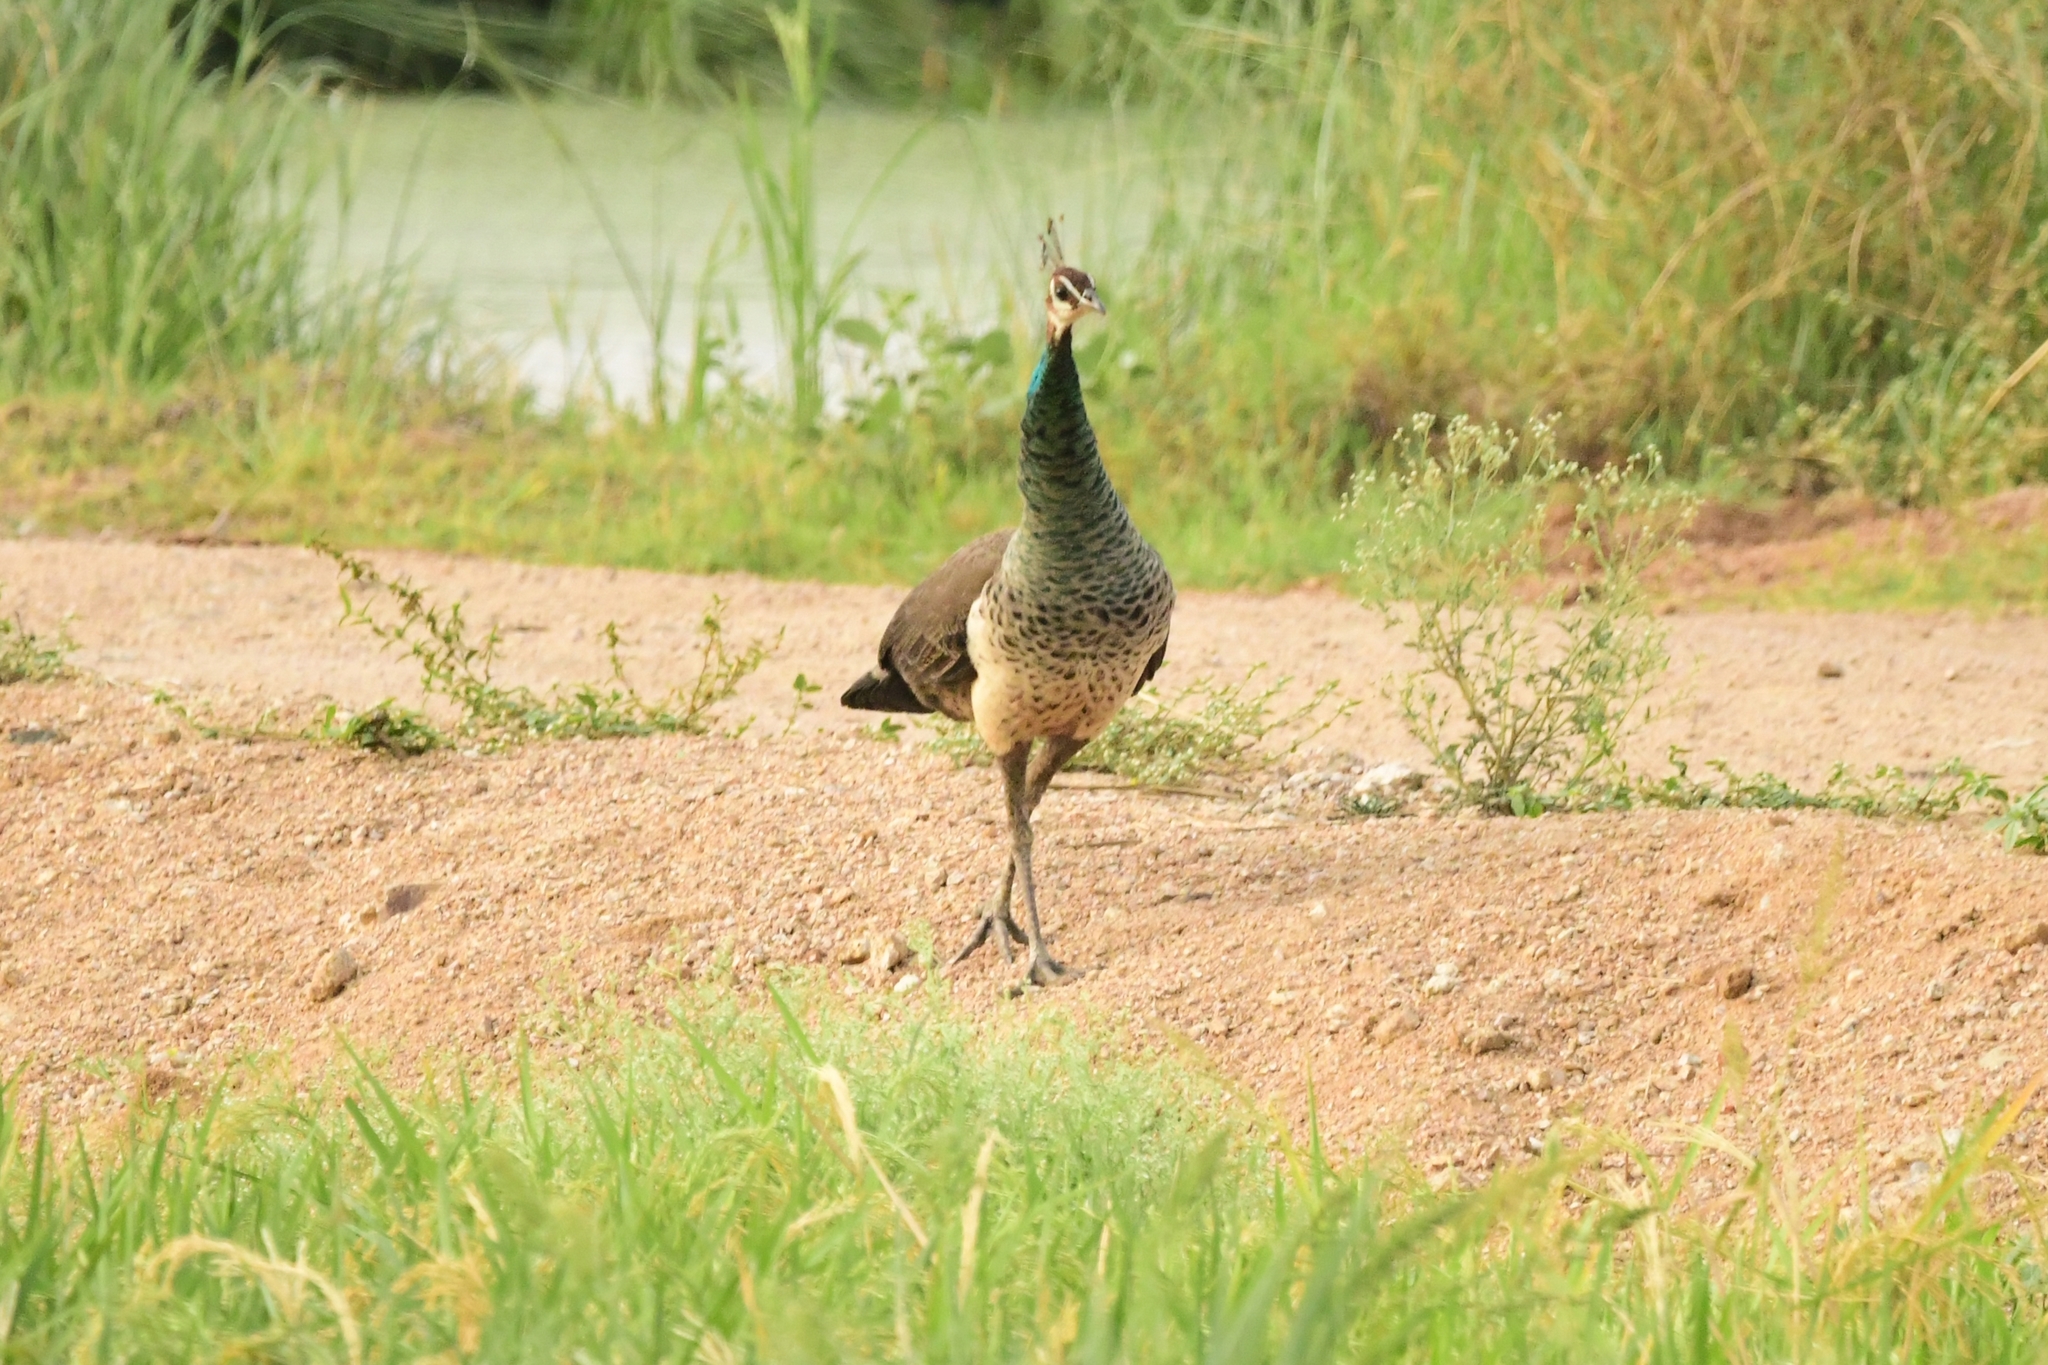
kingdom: Animalia
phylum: Chordata
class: Aves
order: Galliformes
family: Phasianidae
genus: Pavo
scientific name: Pavo cristatus
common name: Indian peafowl
